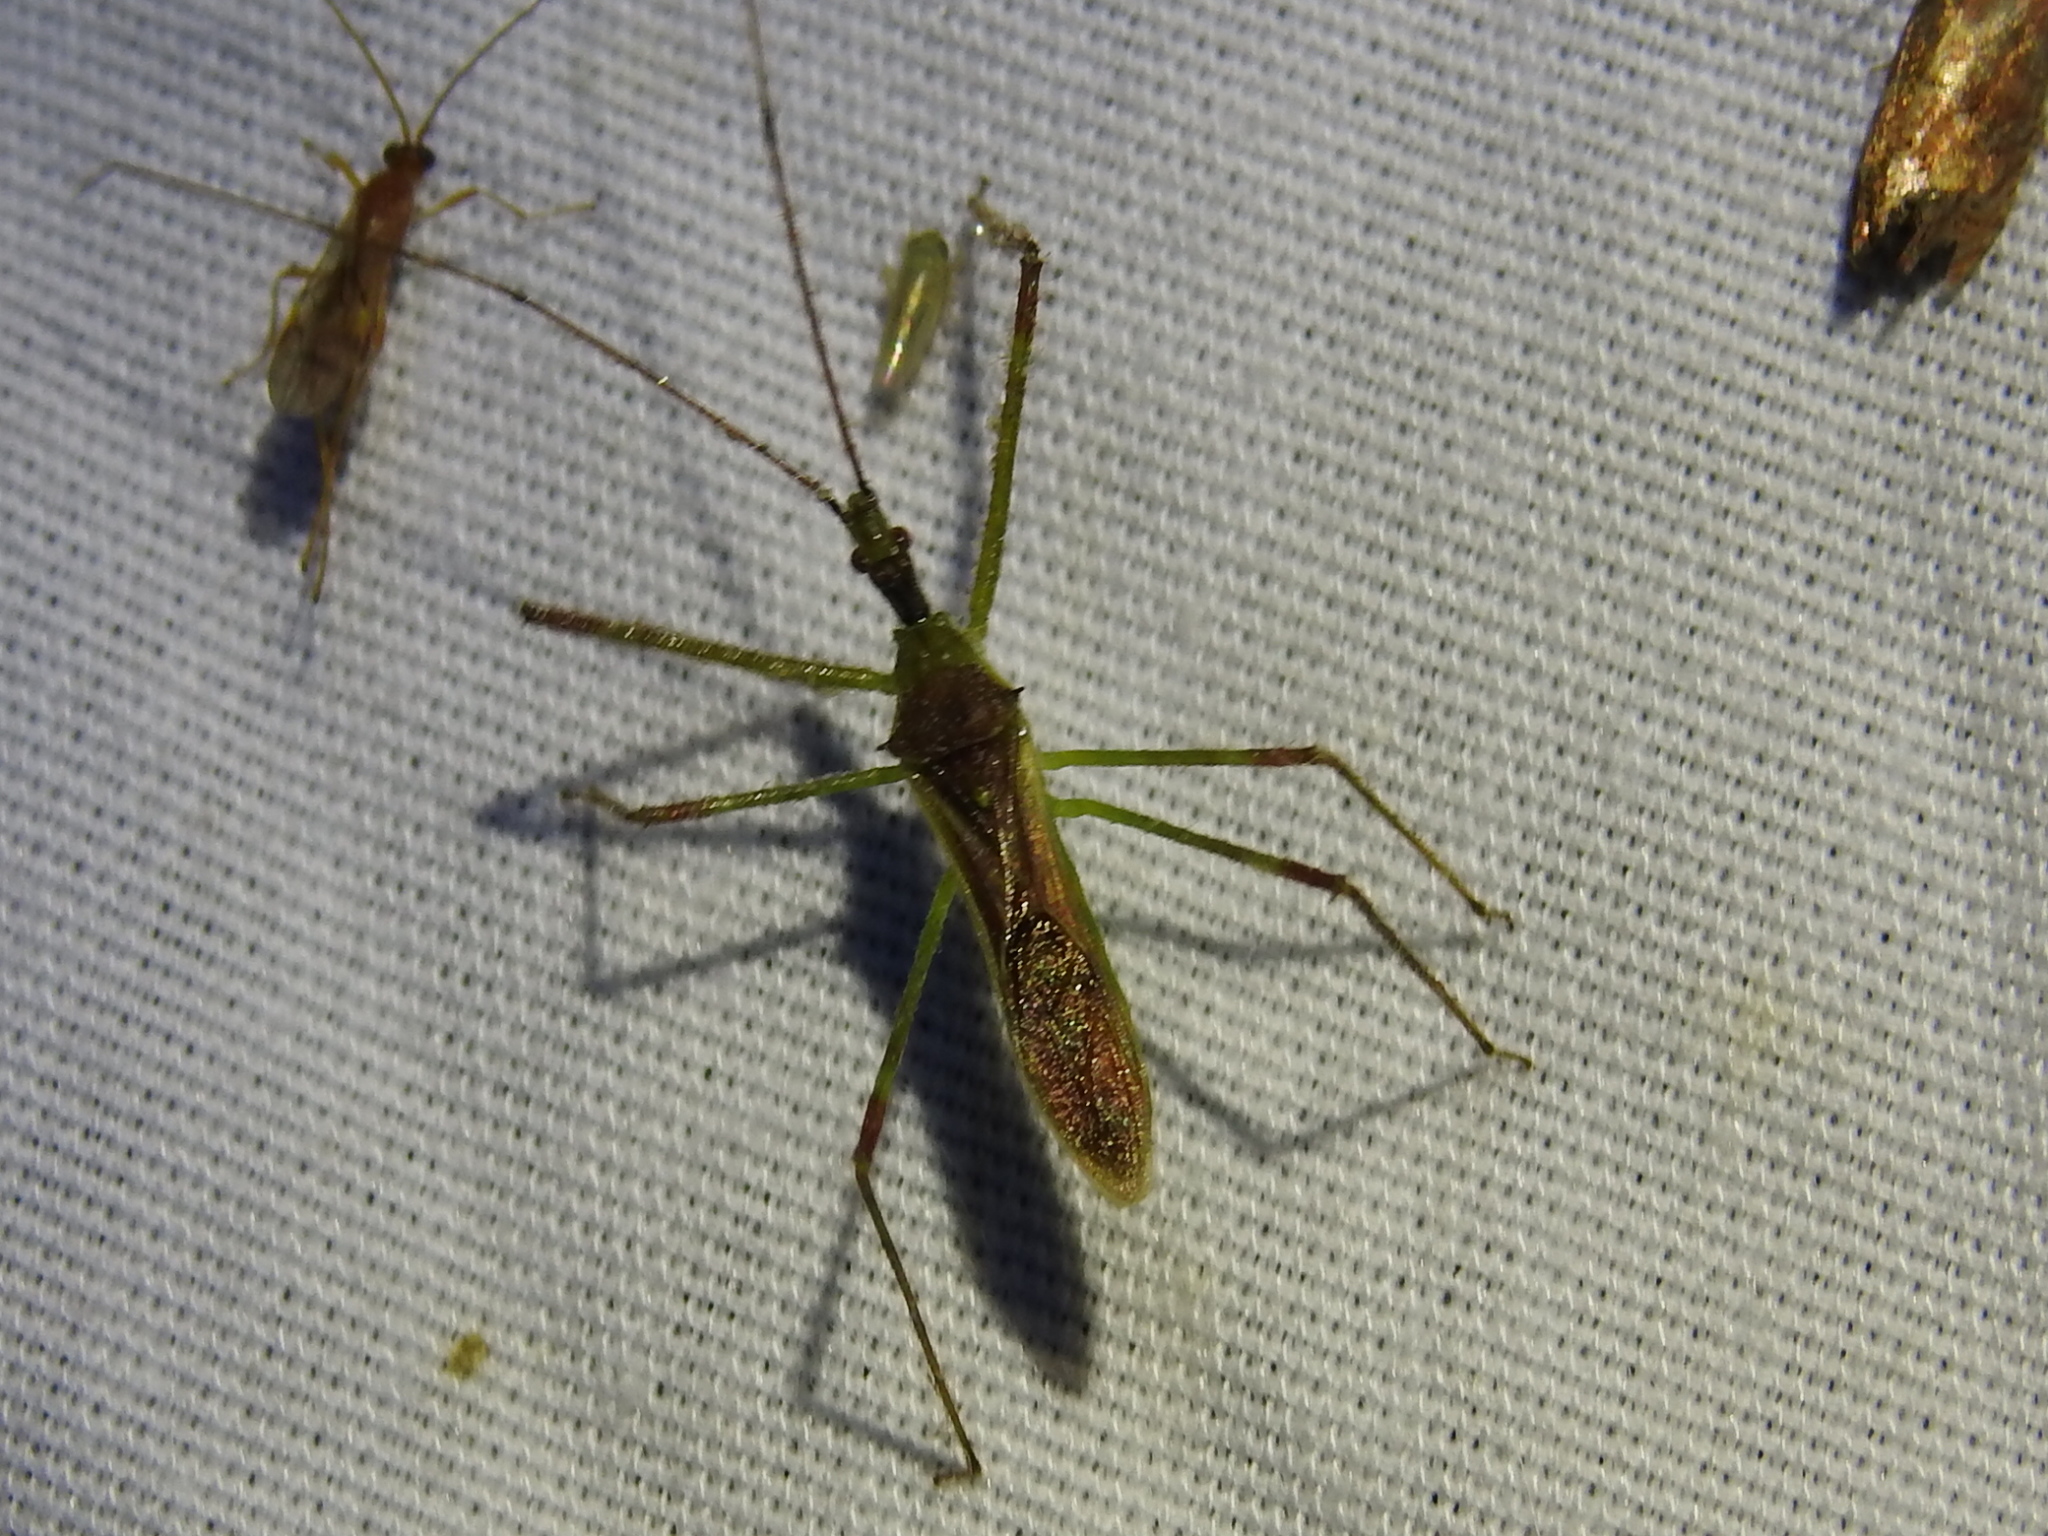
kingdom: Animalia
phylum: Arthropoda
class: Insecta
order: Hemiptera
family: Reduviidae
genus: Zelus
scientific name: Zelus luridus
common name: Pale green assassin bug
